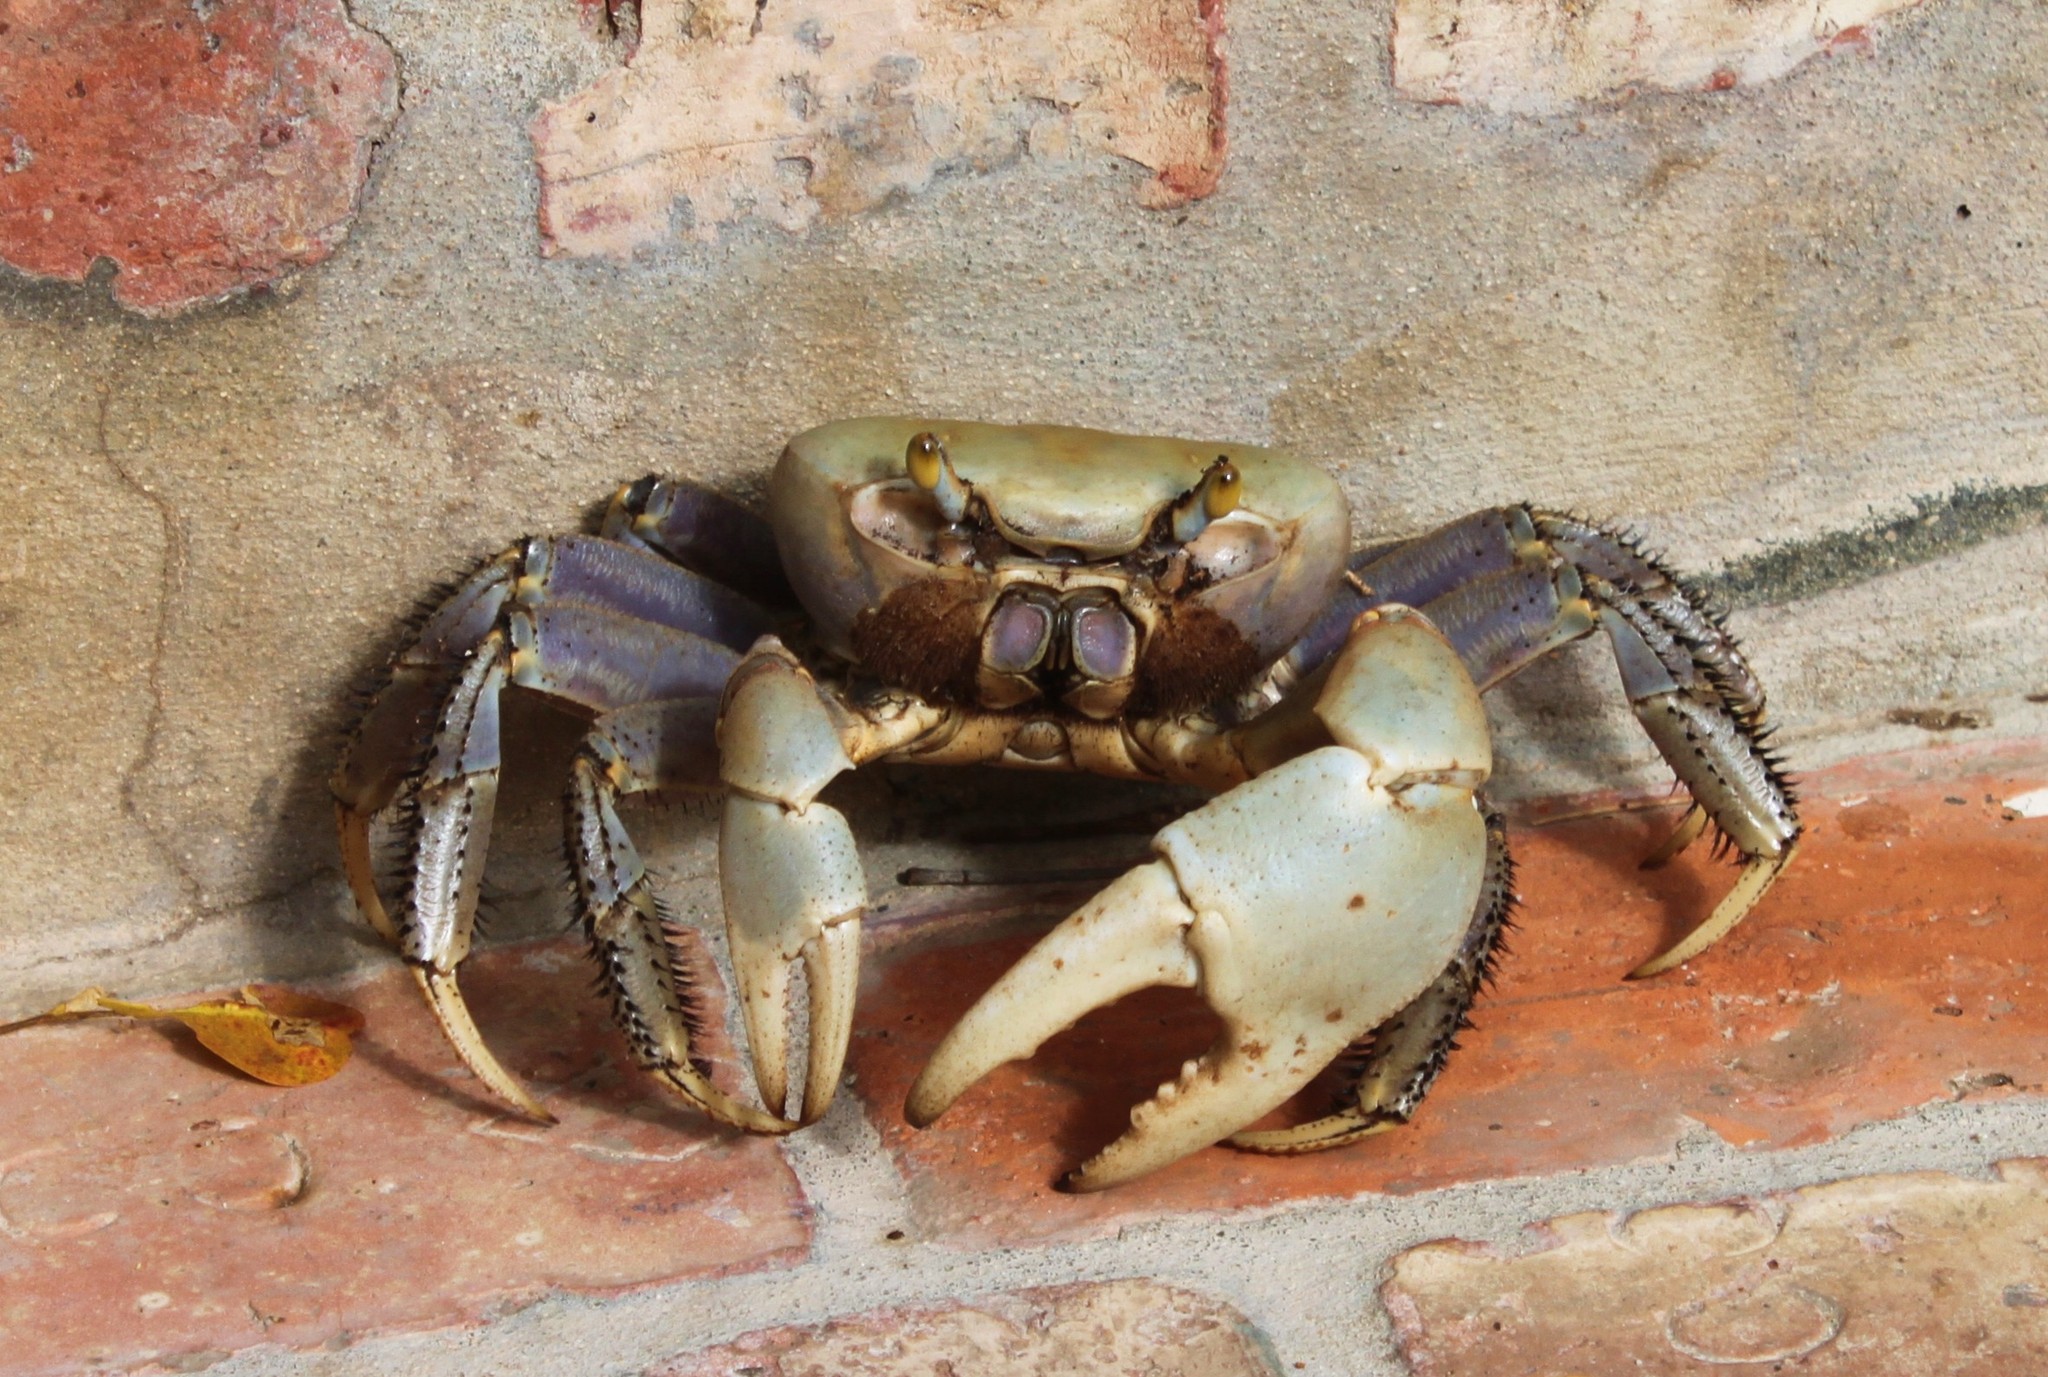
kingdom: Animalia
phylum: Arthropoda
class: Malacostraca
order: Decapoda
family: Gecarcinidae
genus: Cardisoma
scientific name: Cardisoma guanhumi
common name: Great land crab
